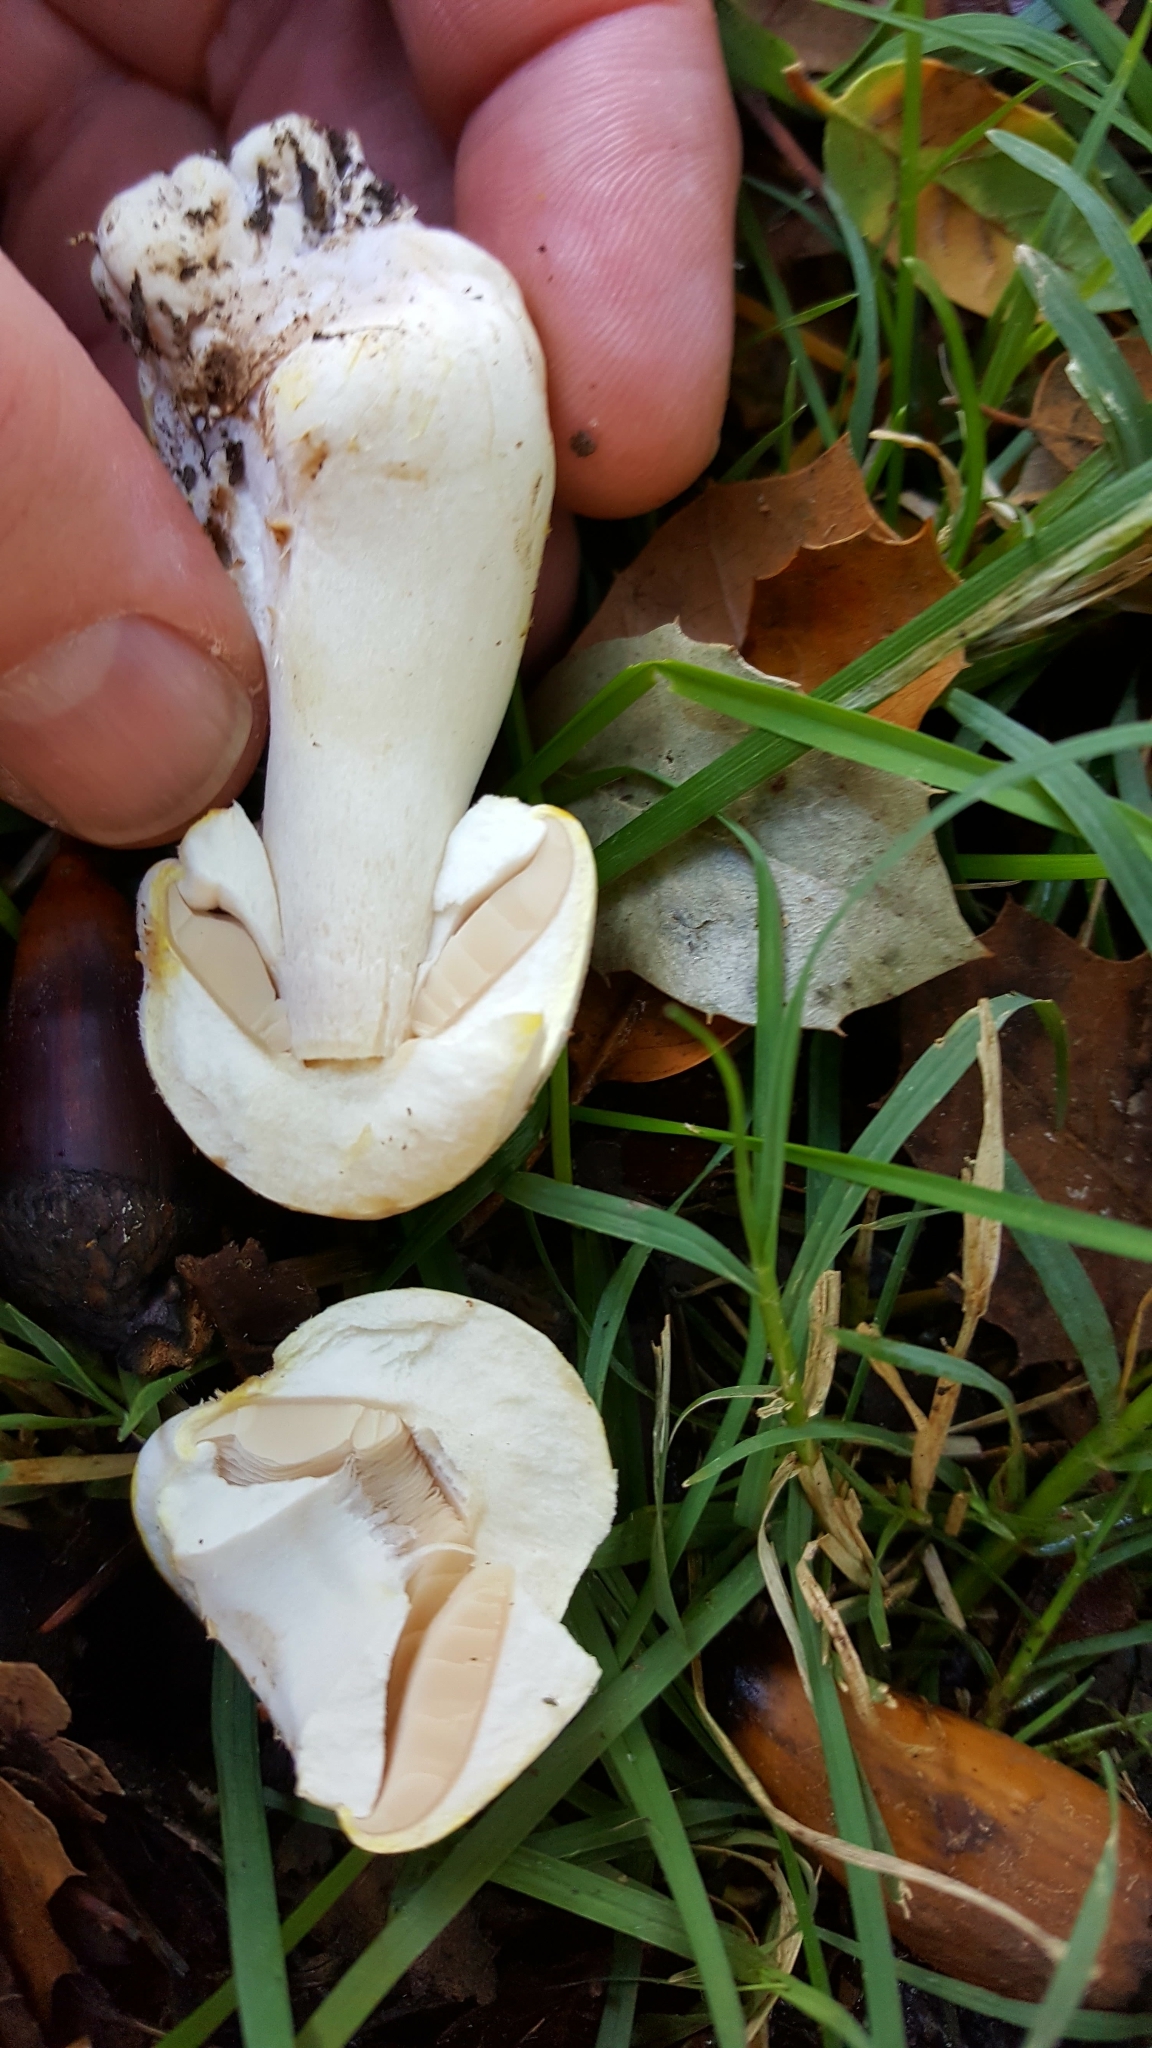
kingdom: Fungi
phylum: Basidiomycota
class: Agaricomycetes
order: Agaricales
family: Agaricaceae
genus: Agaricus
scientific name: Agaricus xanthodermus
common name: Yellow stainer
